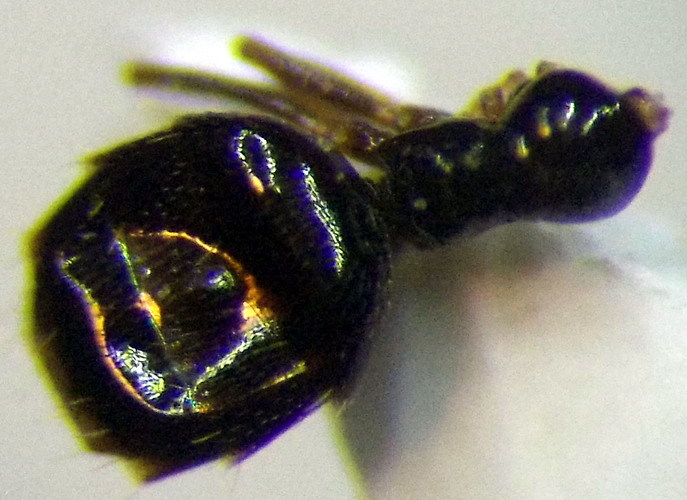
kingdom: Animalia
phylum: Arthropoda
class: Insecta
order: Hymenoptera
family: Formicidae
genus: Plagiolepis
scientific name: Plagiolepis pallescens
